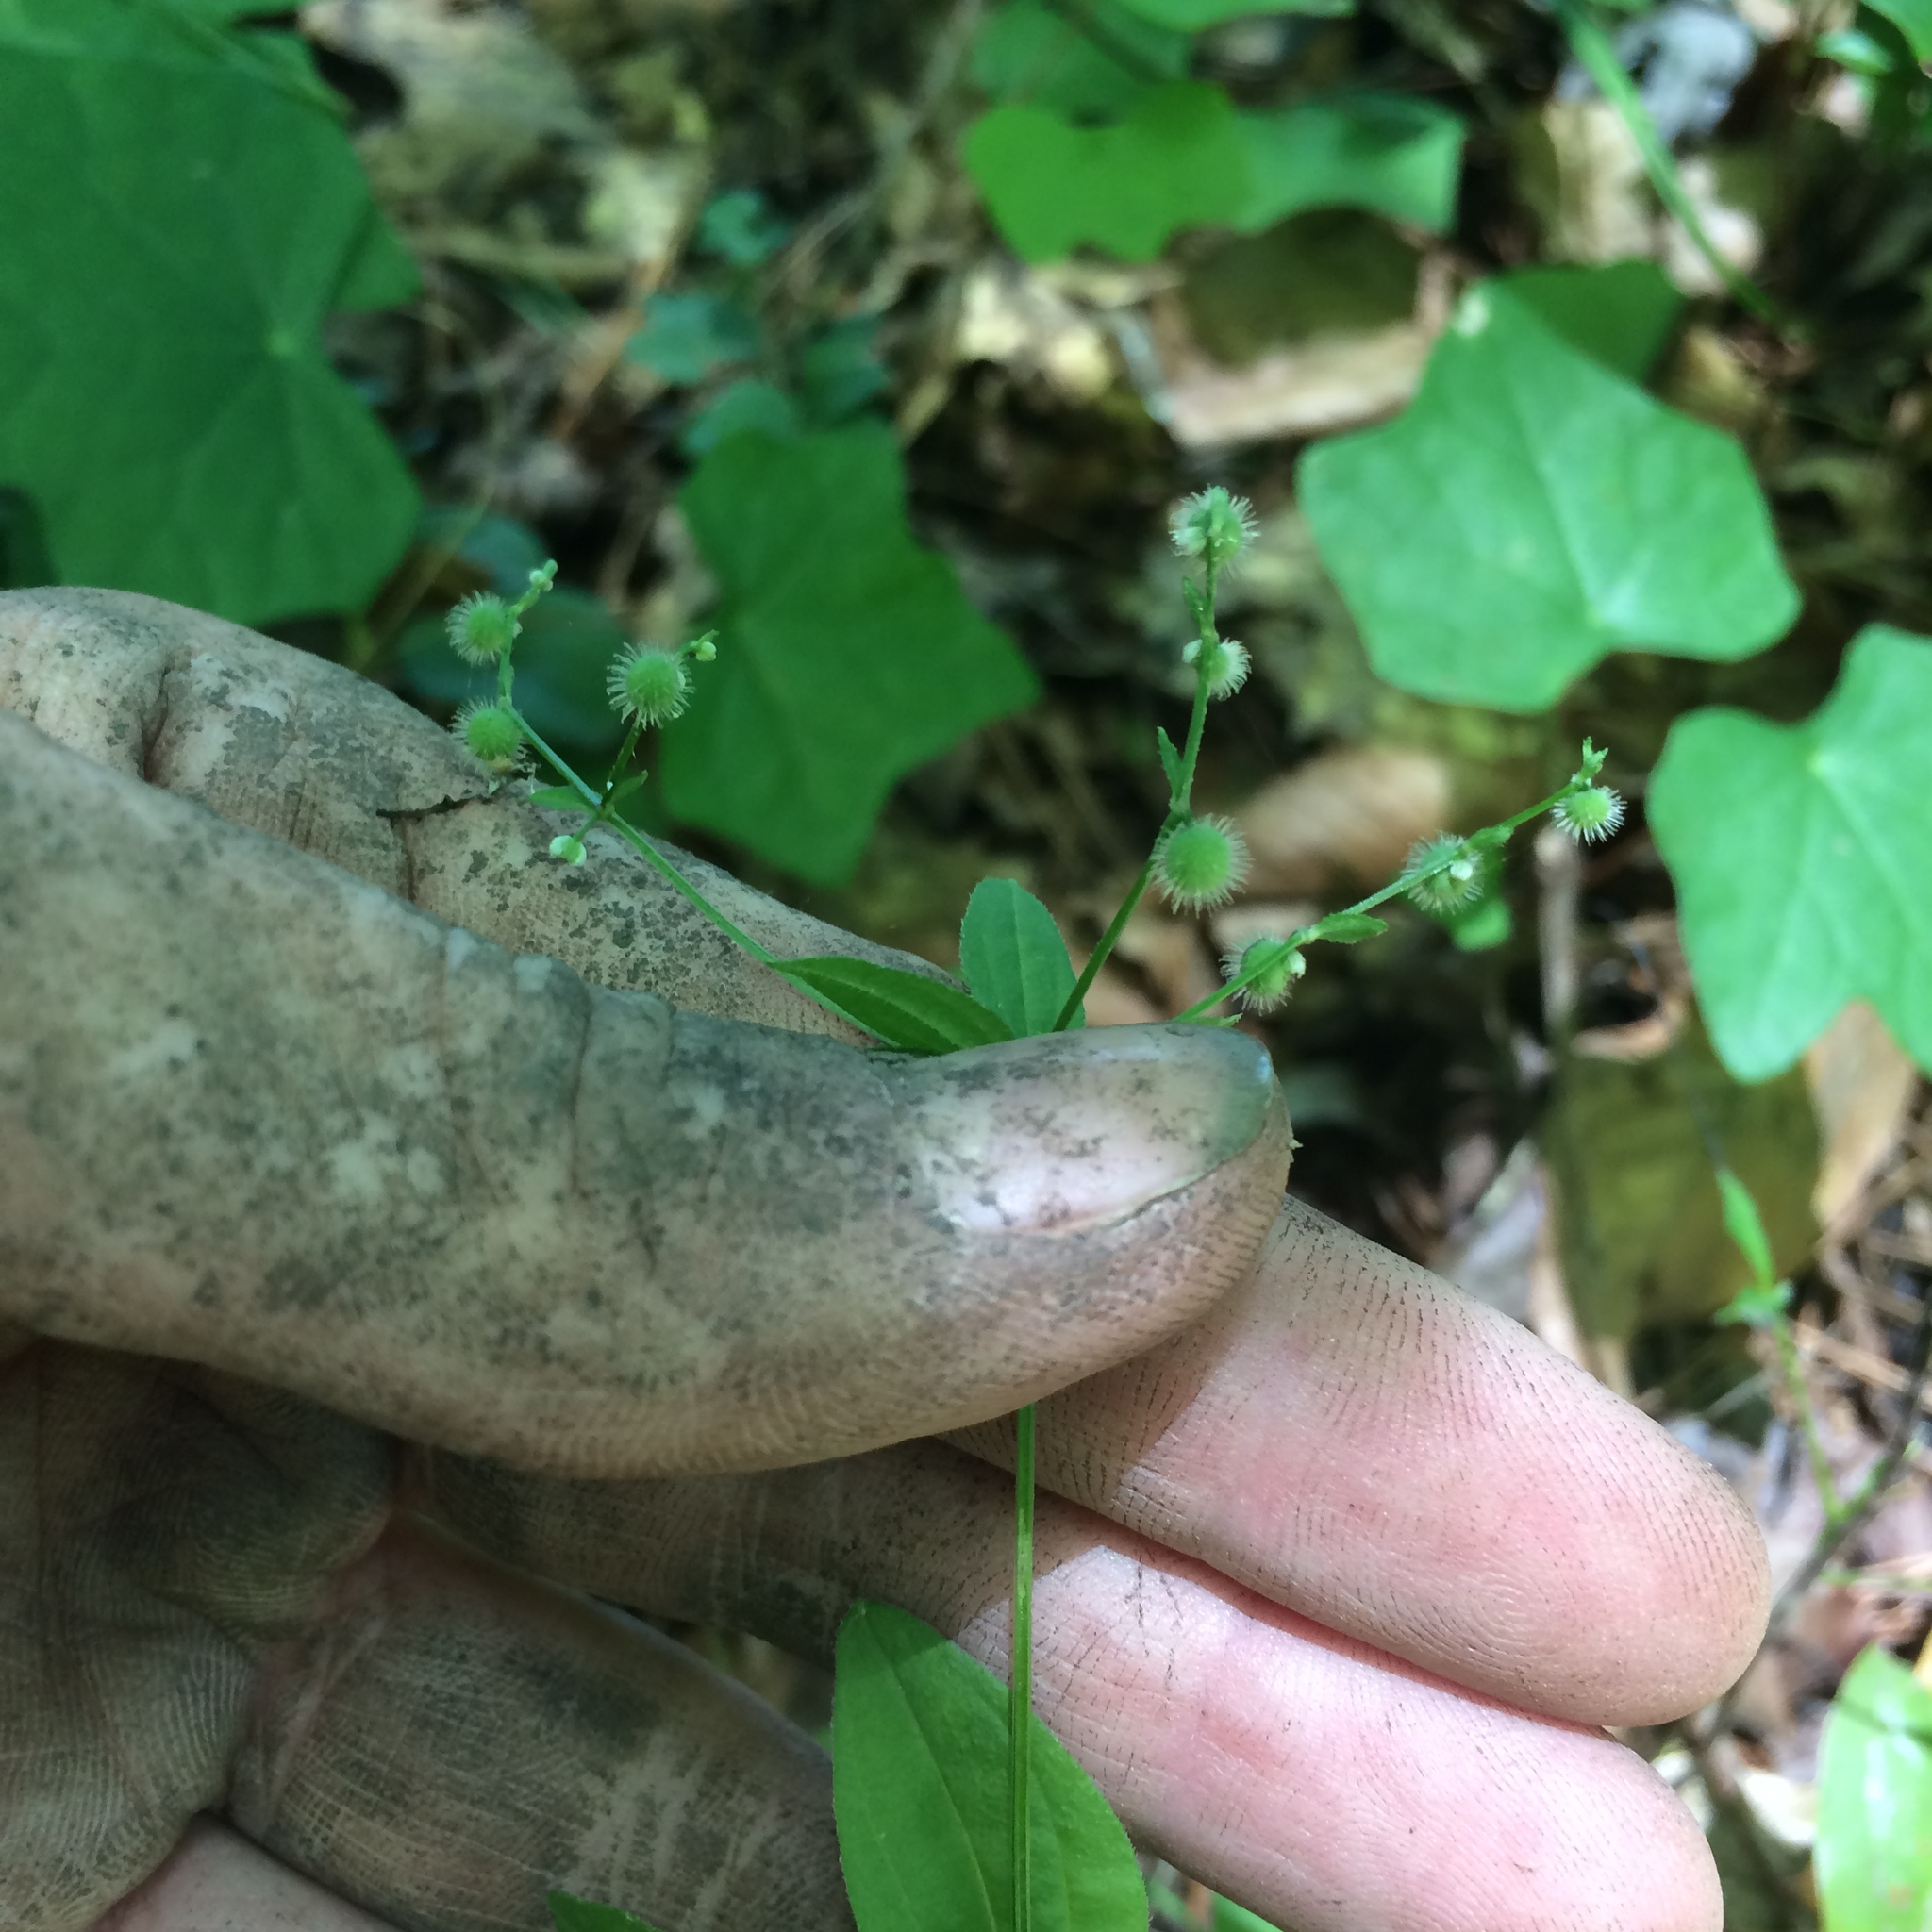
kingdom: Plantae
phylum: Tracheophyta
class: Magnoliopsida
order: Gentianales
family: Rubiaceae
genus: Galium
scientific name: Galium circaezans
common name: Forest bedstraw
